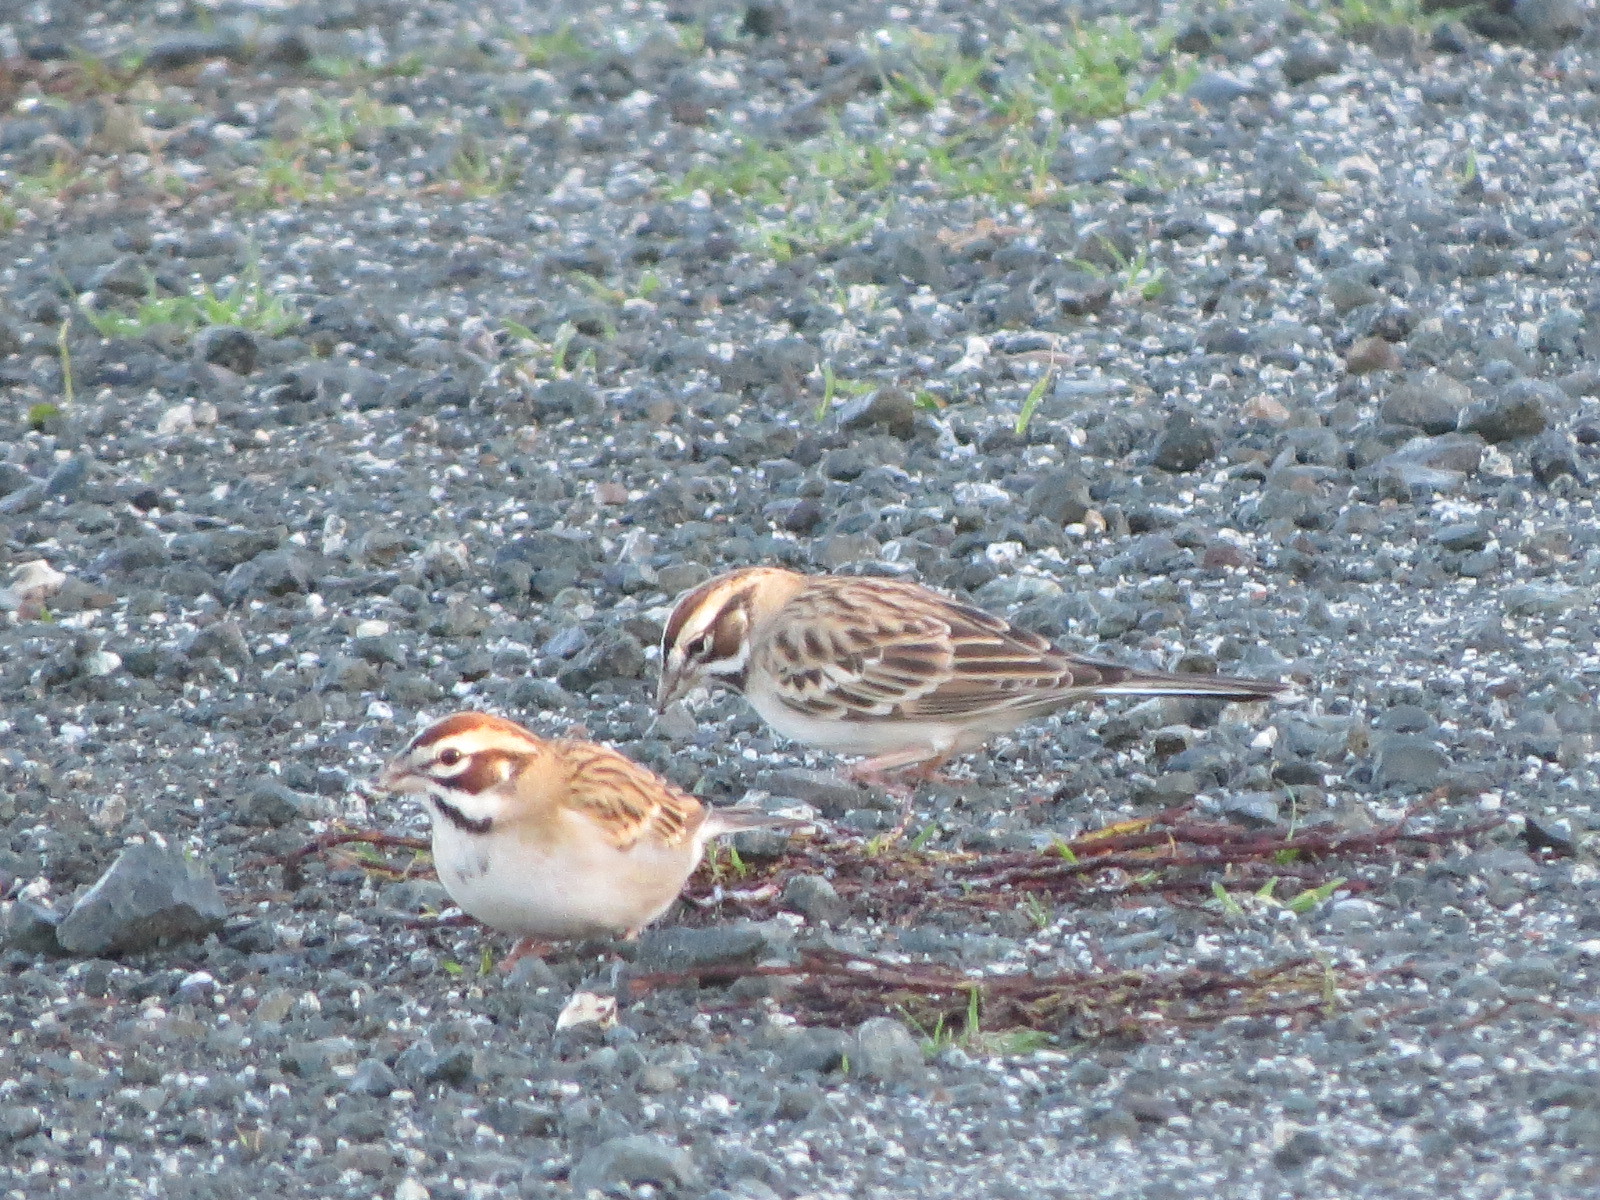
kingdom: Animalia
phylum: Chordata
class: Aves
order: Passeriformes
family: Passerellidae
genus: Chondestes
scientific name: Chondestes grammacus
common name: Lark sparrow
